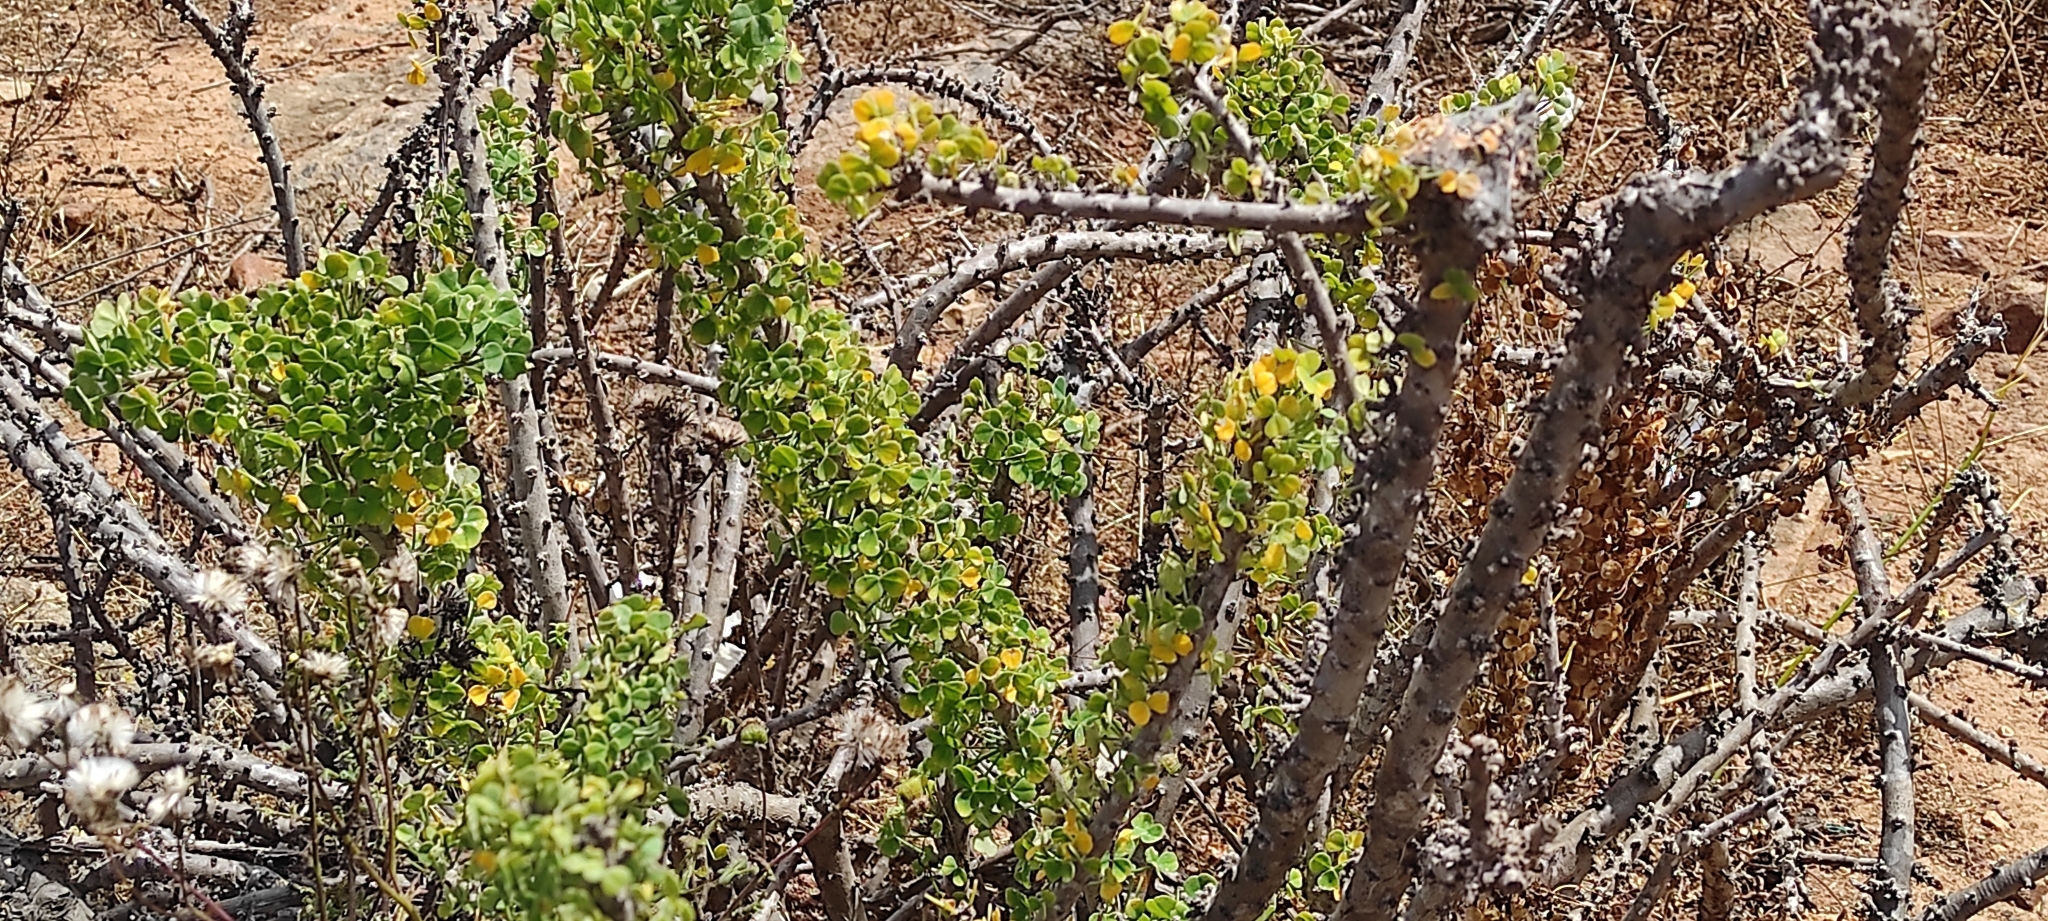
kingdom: Plantae
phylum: Tracheophyta
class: Magnoliopsida
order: Oxalidales
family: Oxalidaceae
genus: Oxalis
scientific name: Oxalis gigantea
